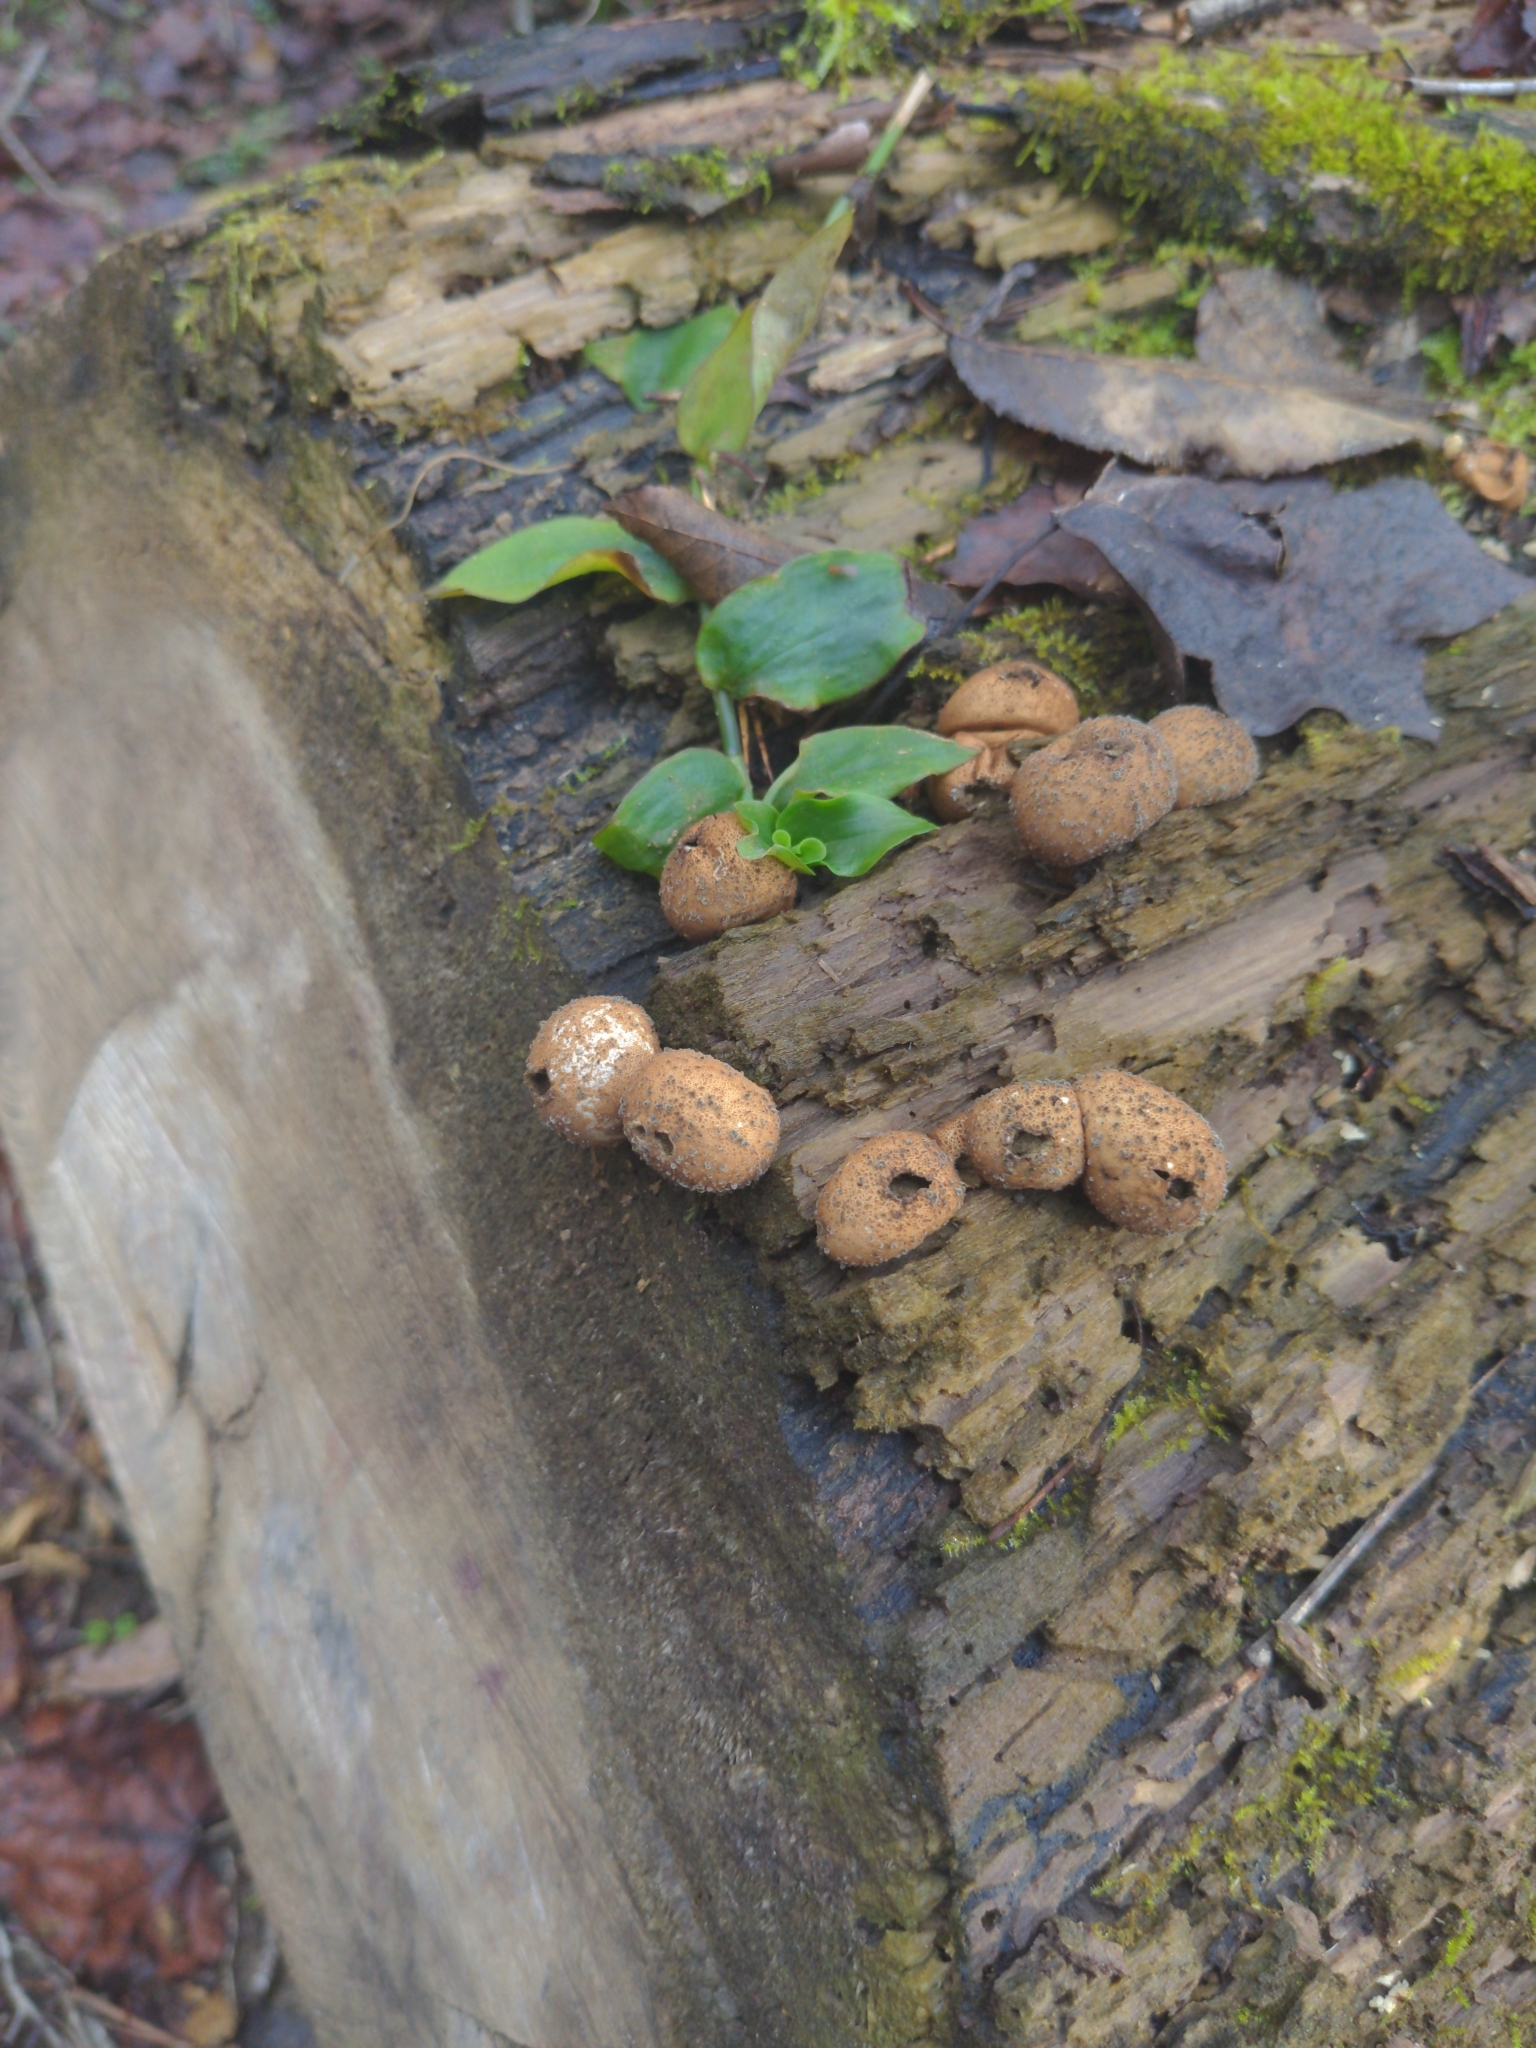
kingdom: Fungi
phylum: Basidiomycota
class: Agaricomycetes
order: Agaricales
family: Lycoperdaceae
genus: Apioperdon
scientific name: Apioperdon pyriforme
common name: Pear-shaped puffball
